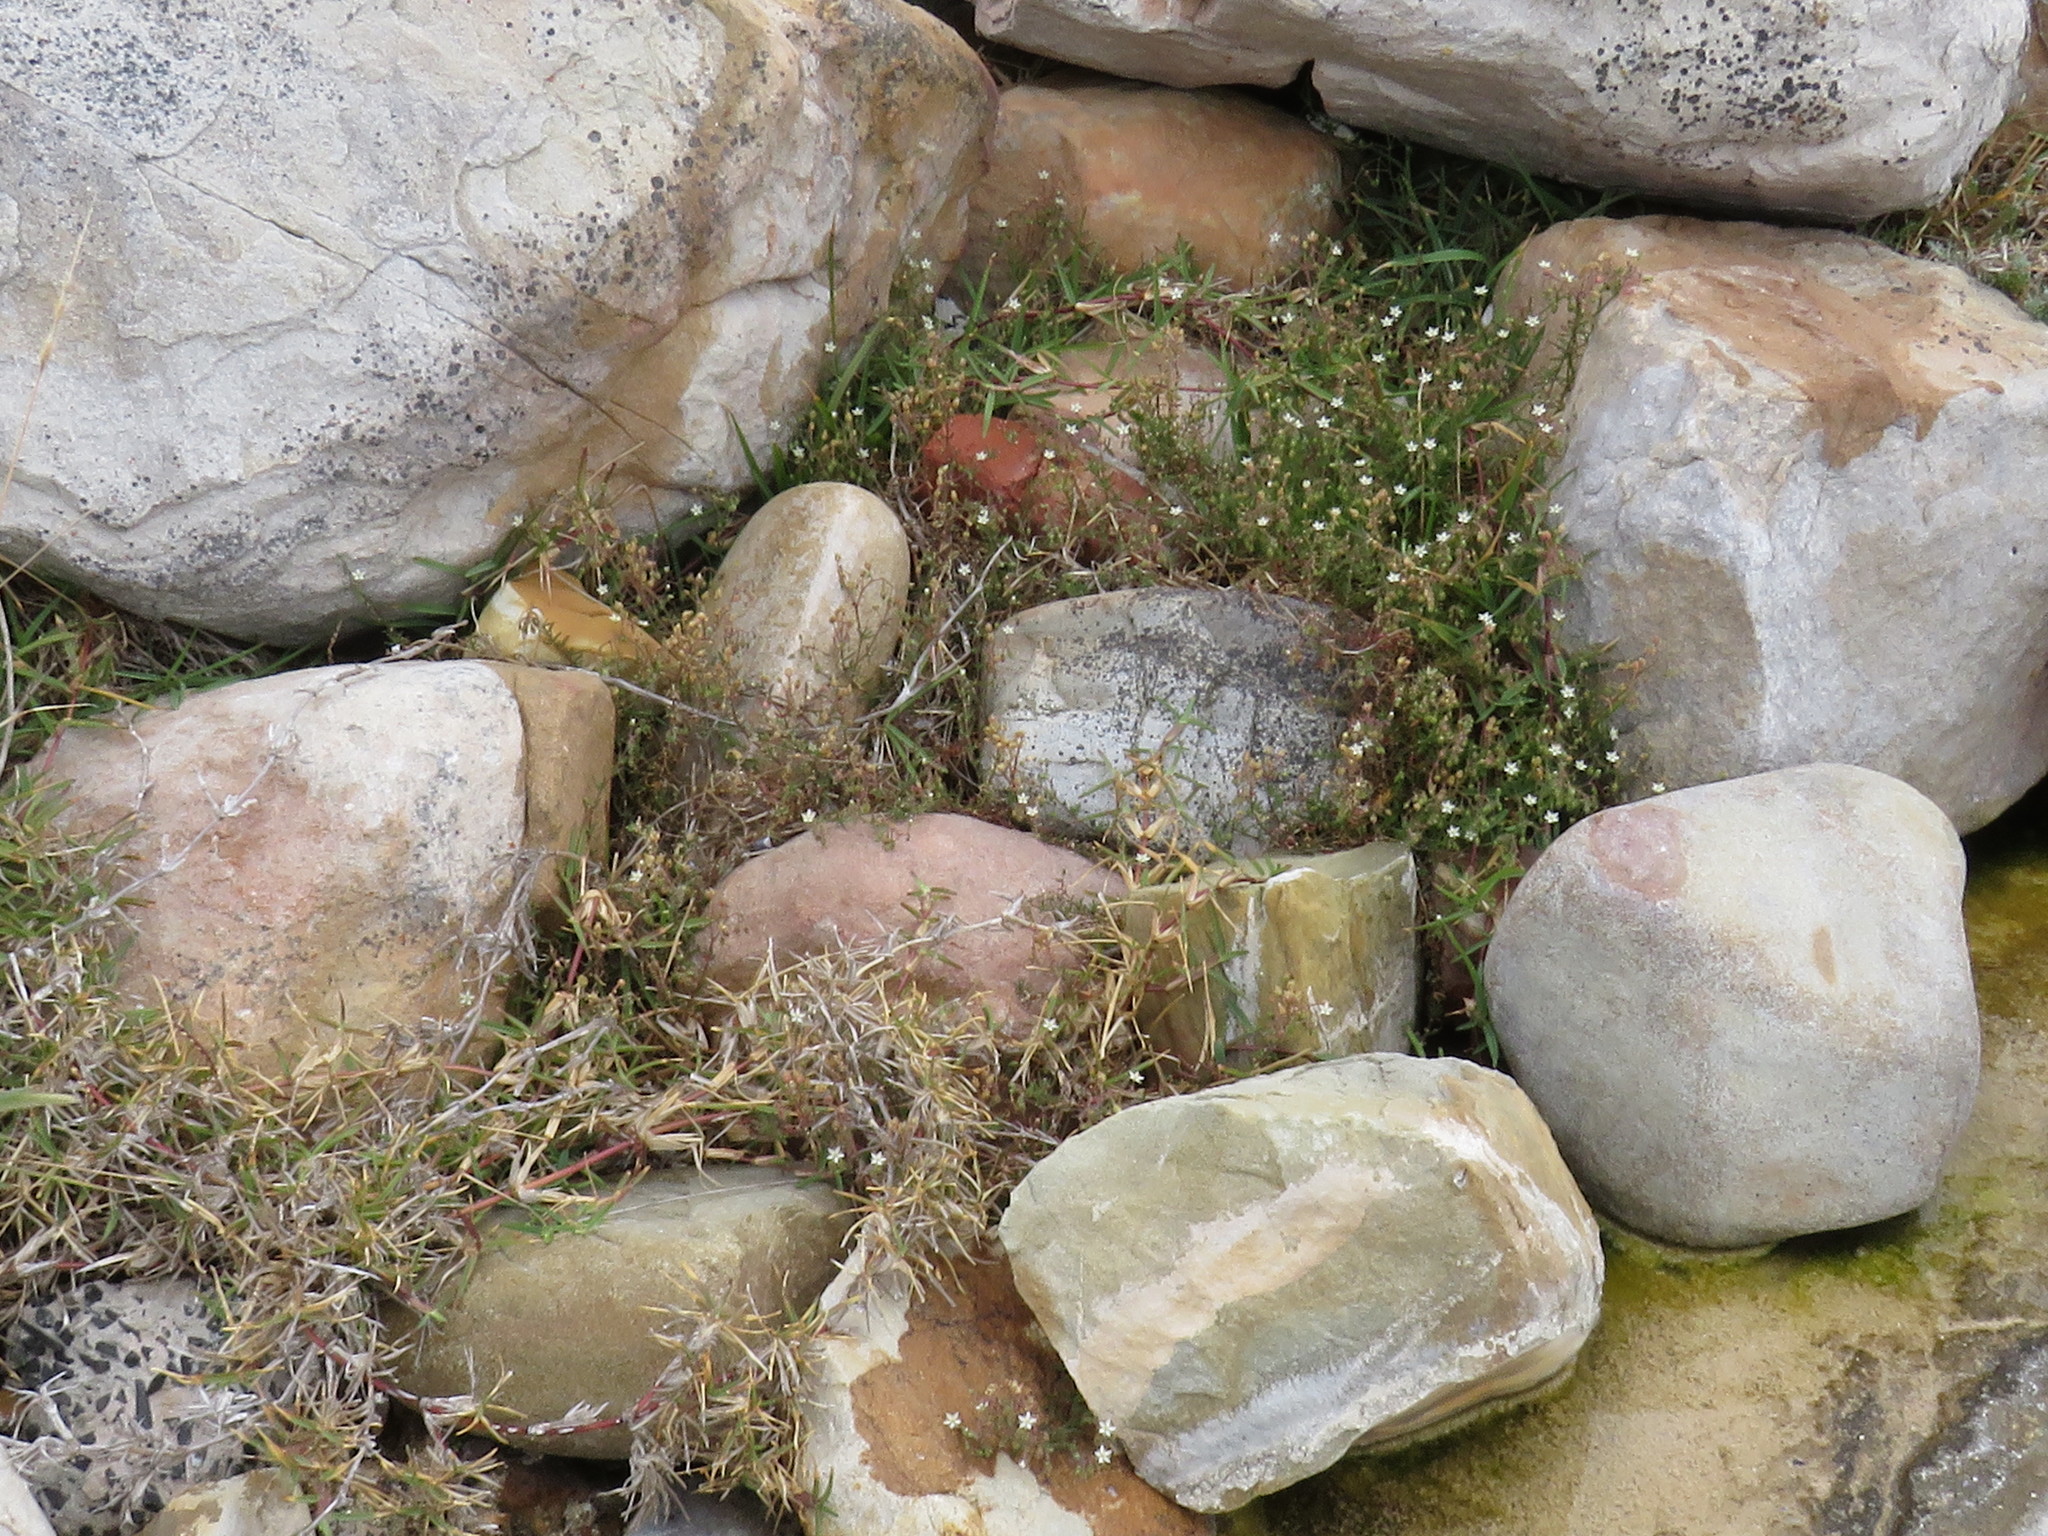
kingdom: Plantae
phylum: Tracheophyta
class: Magnoliopsida
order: Caryophyllales
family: Caryophyllaceae
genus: Spergularia
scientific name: Spergularia media
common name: Greater sea-spurrey
